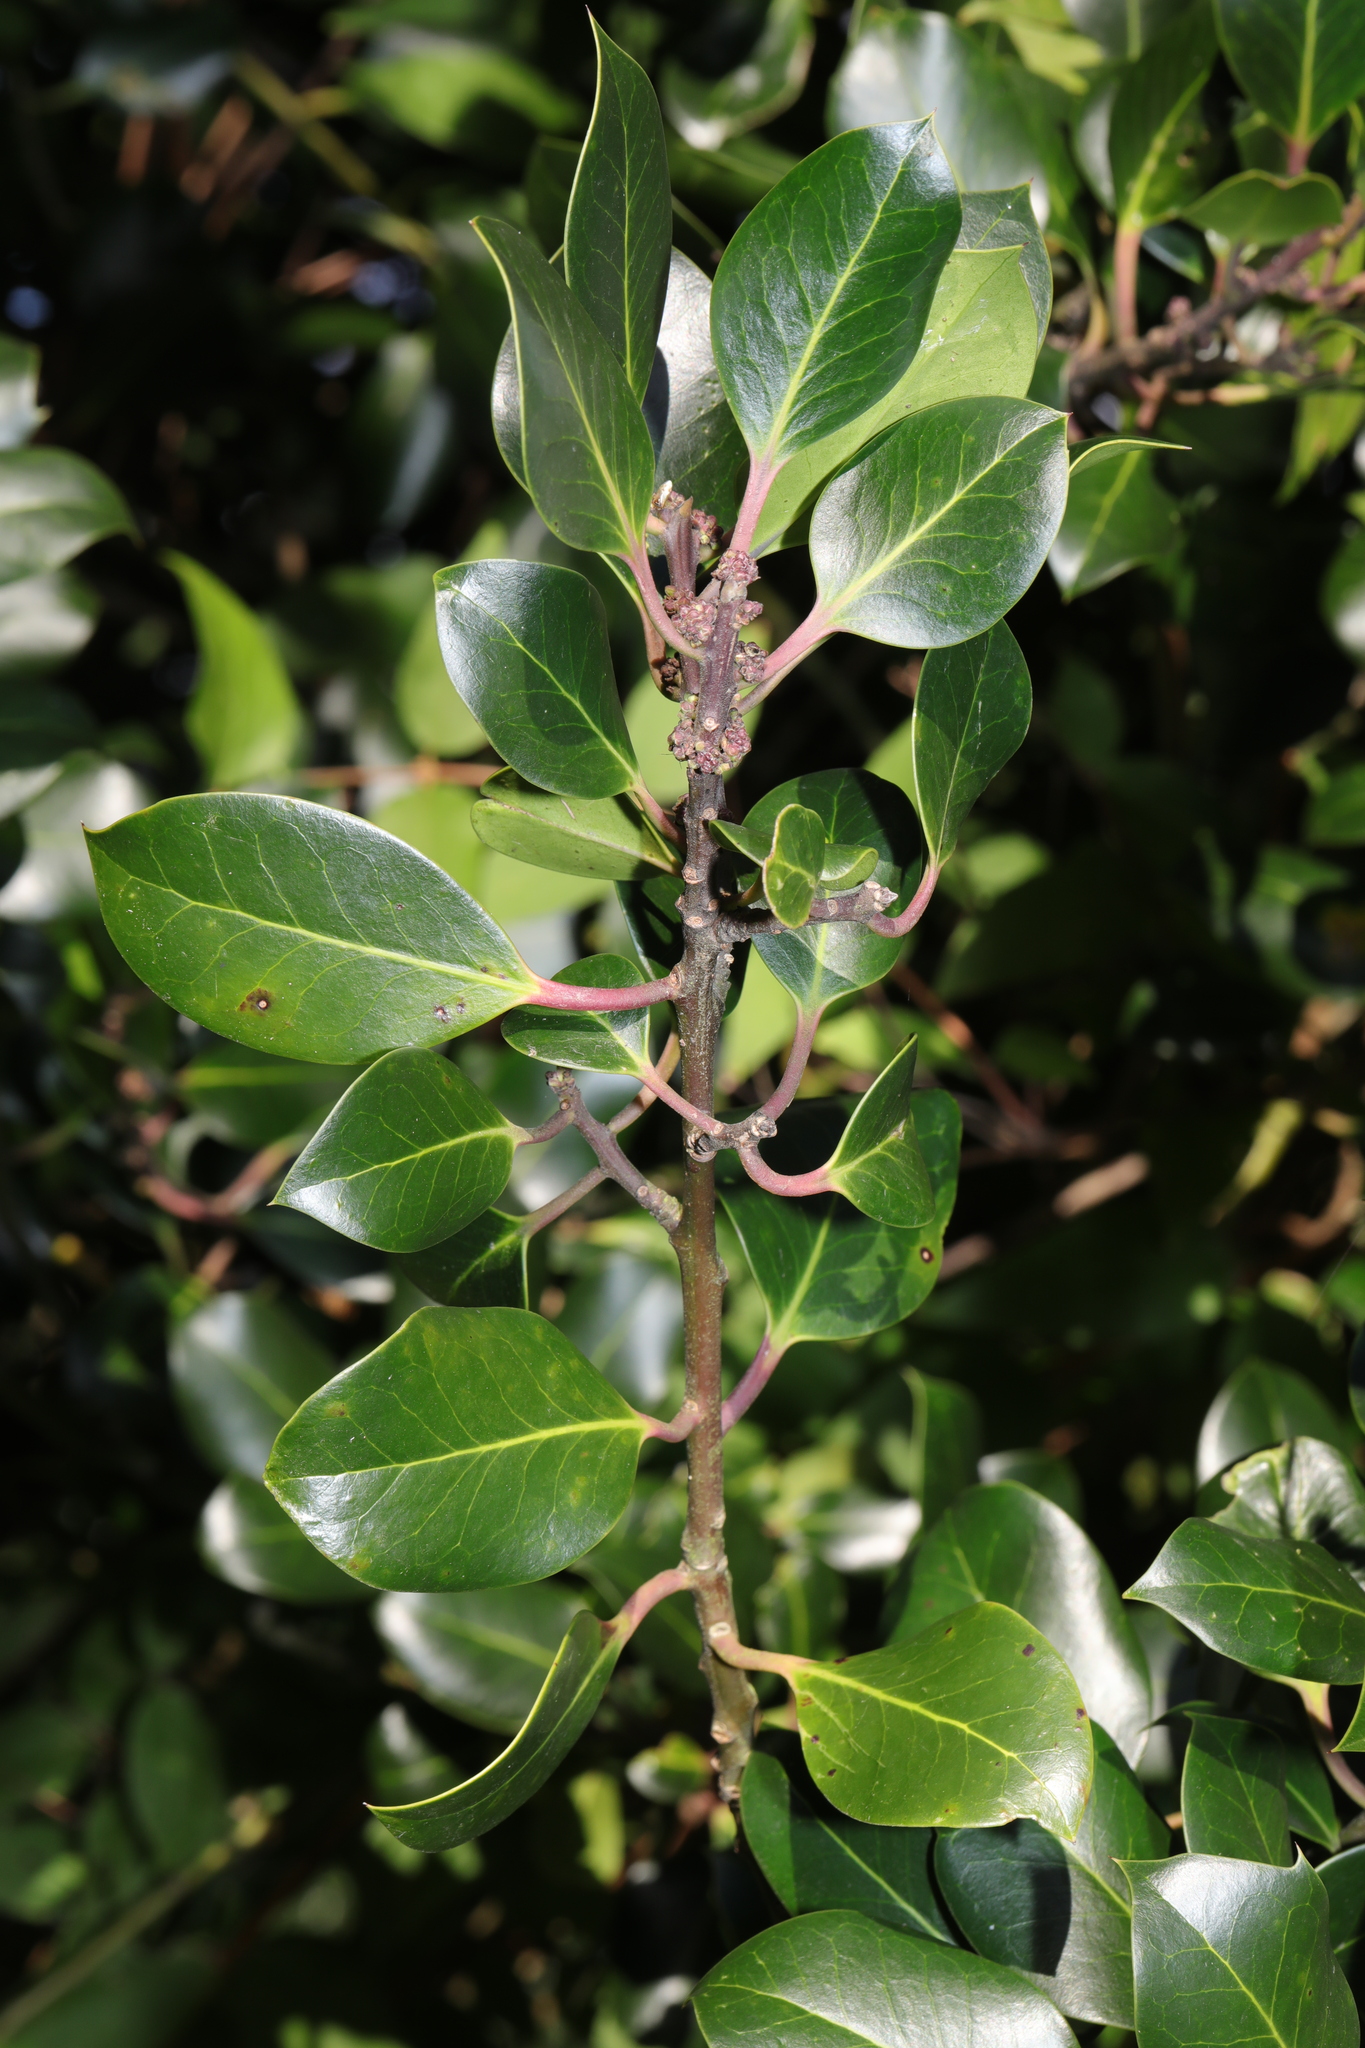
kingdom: Plantae
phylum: Tracheophyta
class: Magnoliopsida
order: Aquifoliales
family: Aquifoliaceae
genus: Ilex
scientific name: Ilex altaclerensis
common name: Highclere holly
